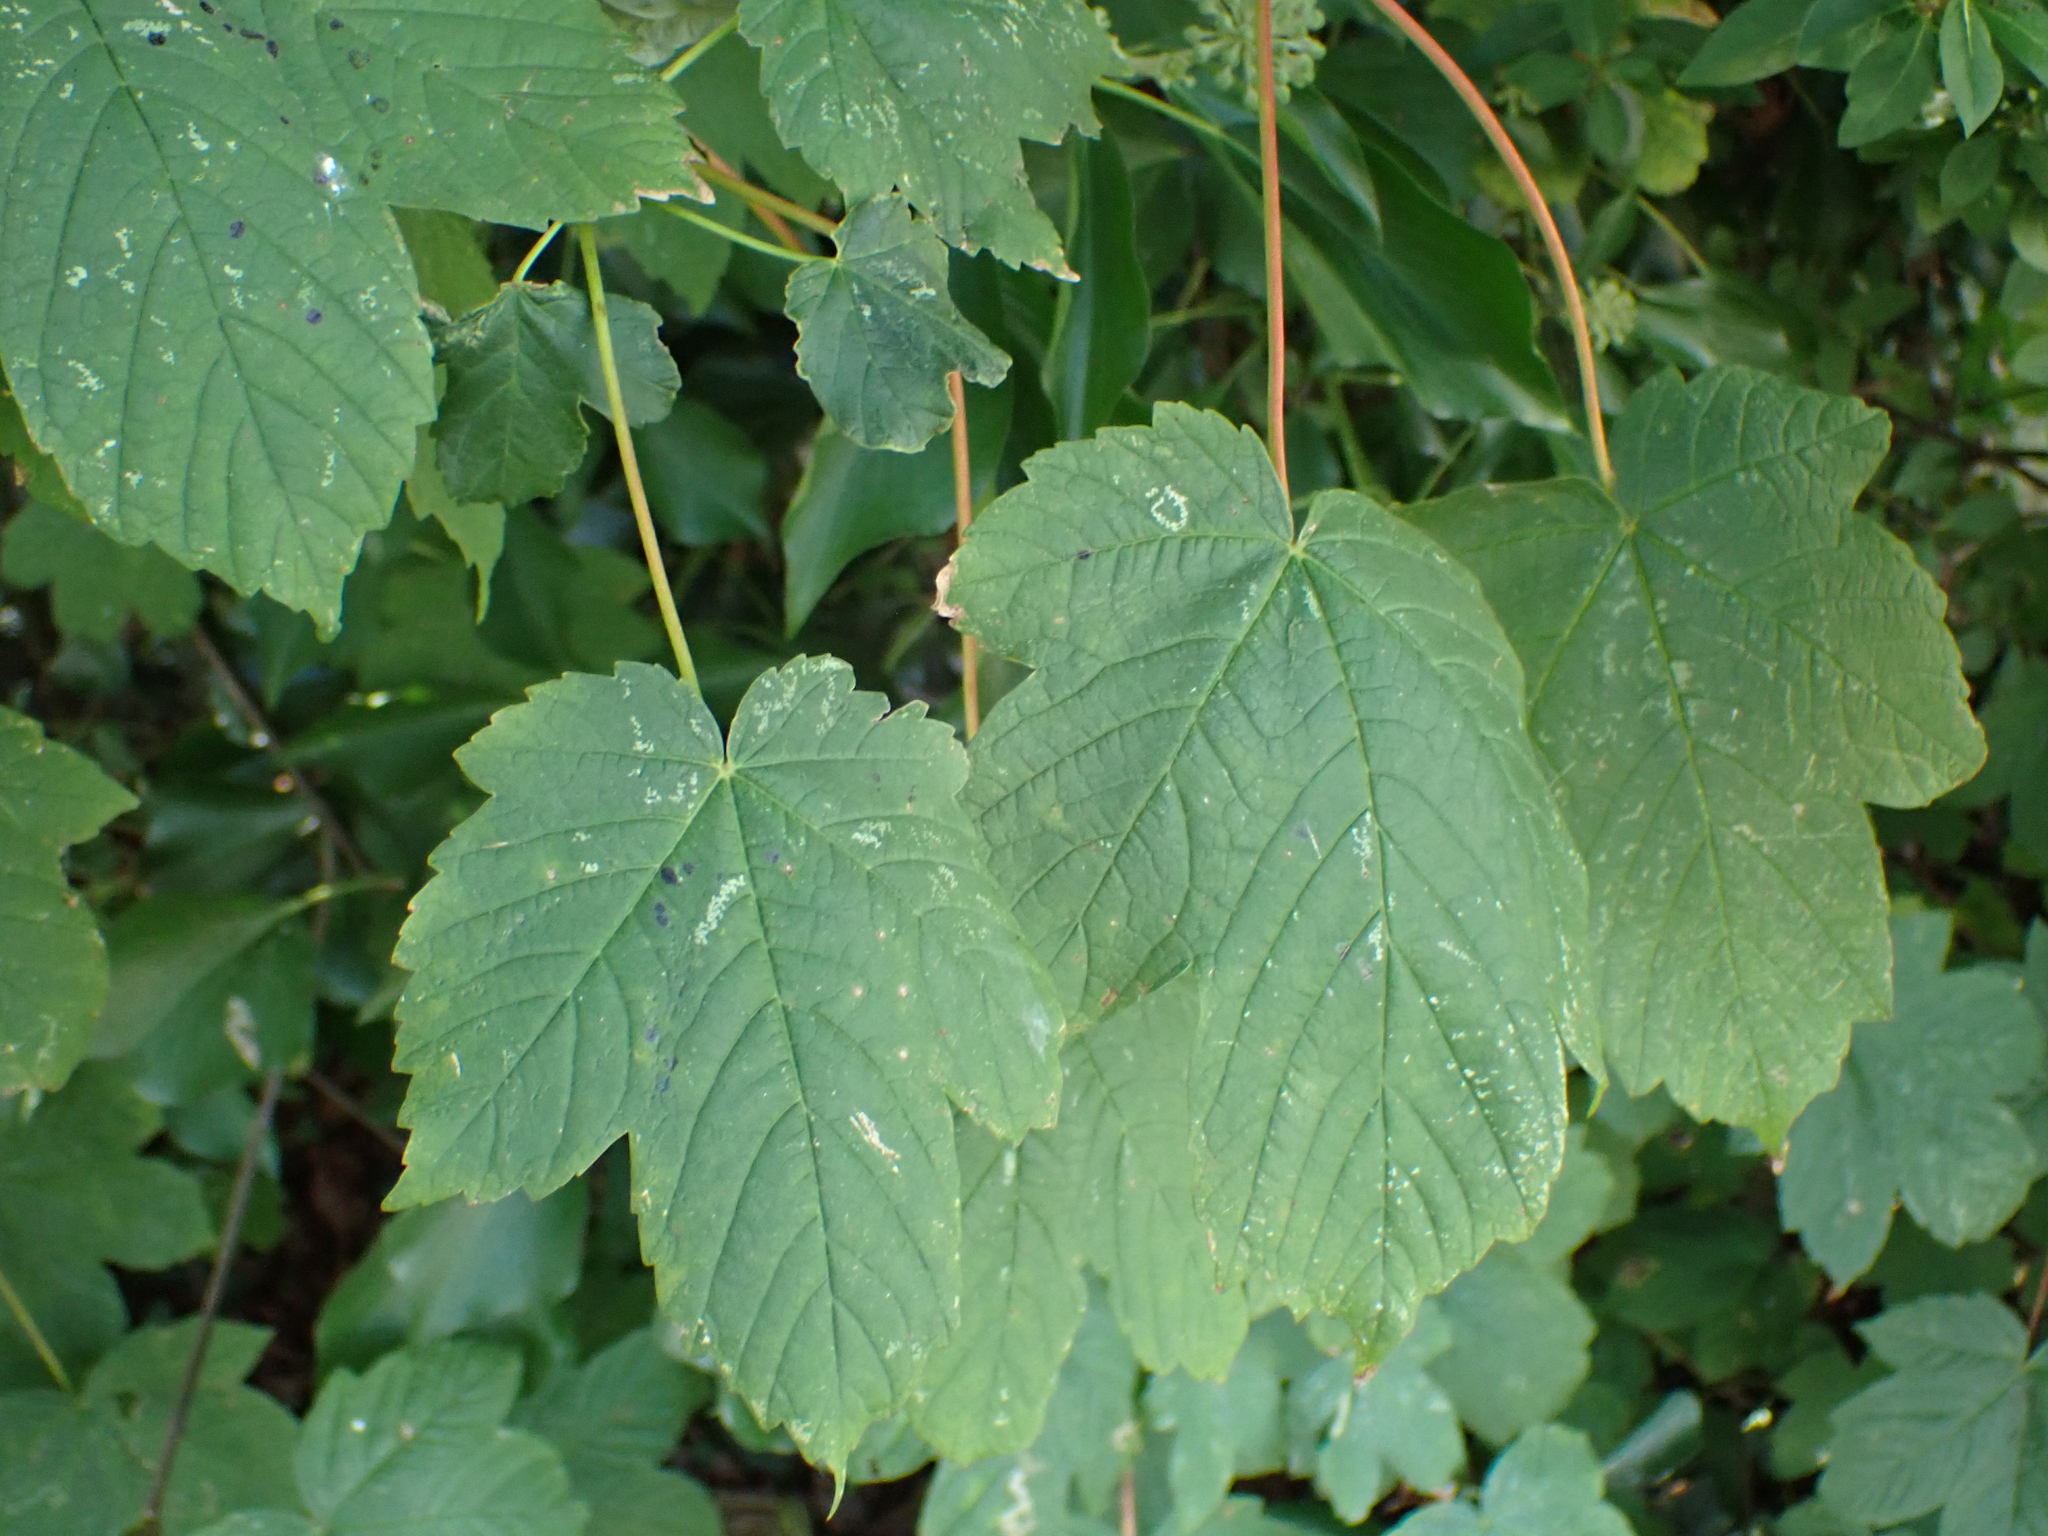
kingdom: Plantae
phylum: Tracheophyta
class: Magnoliopsida
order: Sapindales
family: Sapindaceae
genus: Acer
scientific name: Acer pseudoplatanus
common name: Sycamore
